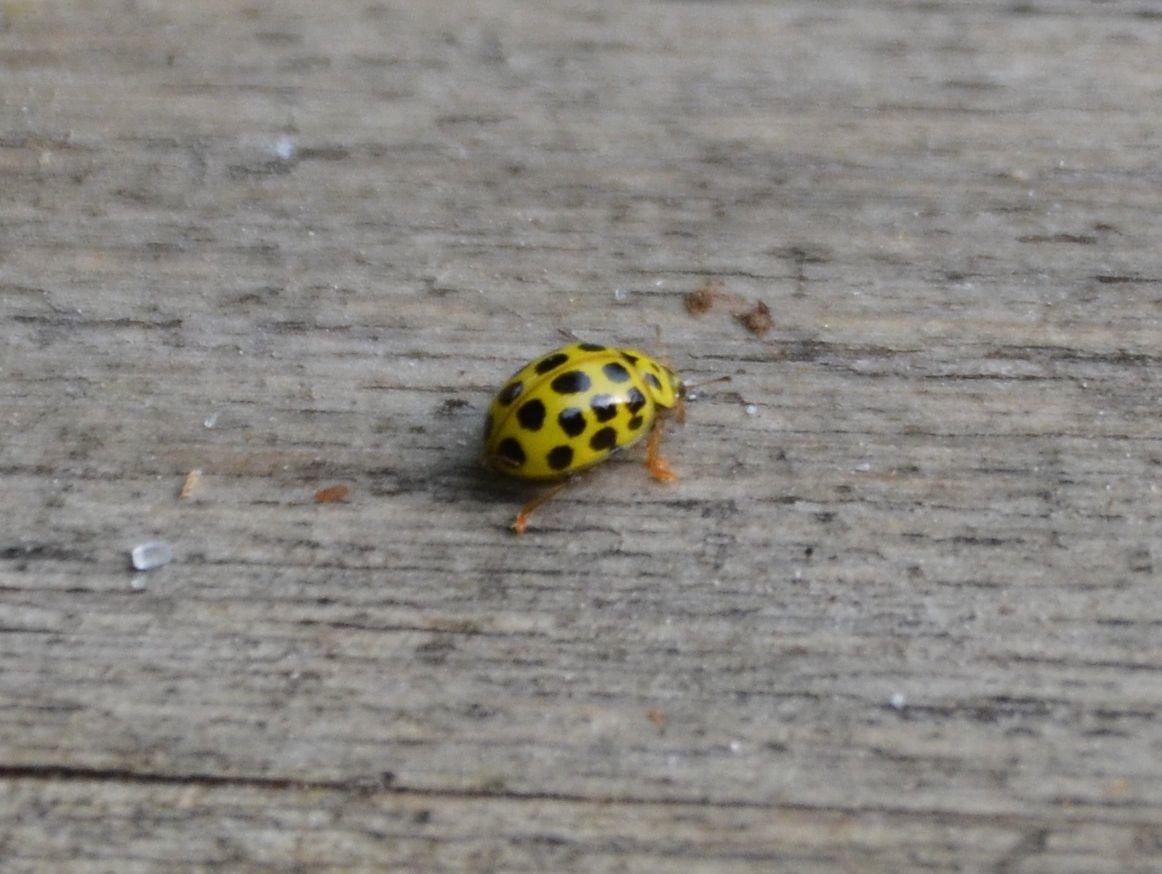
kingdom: Animalia
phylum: Arthropoda
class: Insecta
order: Coleoptera
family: Coccinellidae
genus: Psyllobora
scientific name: Psyllobora vigintiduopunctata
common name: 22-spot ladybird
